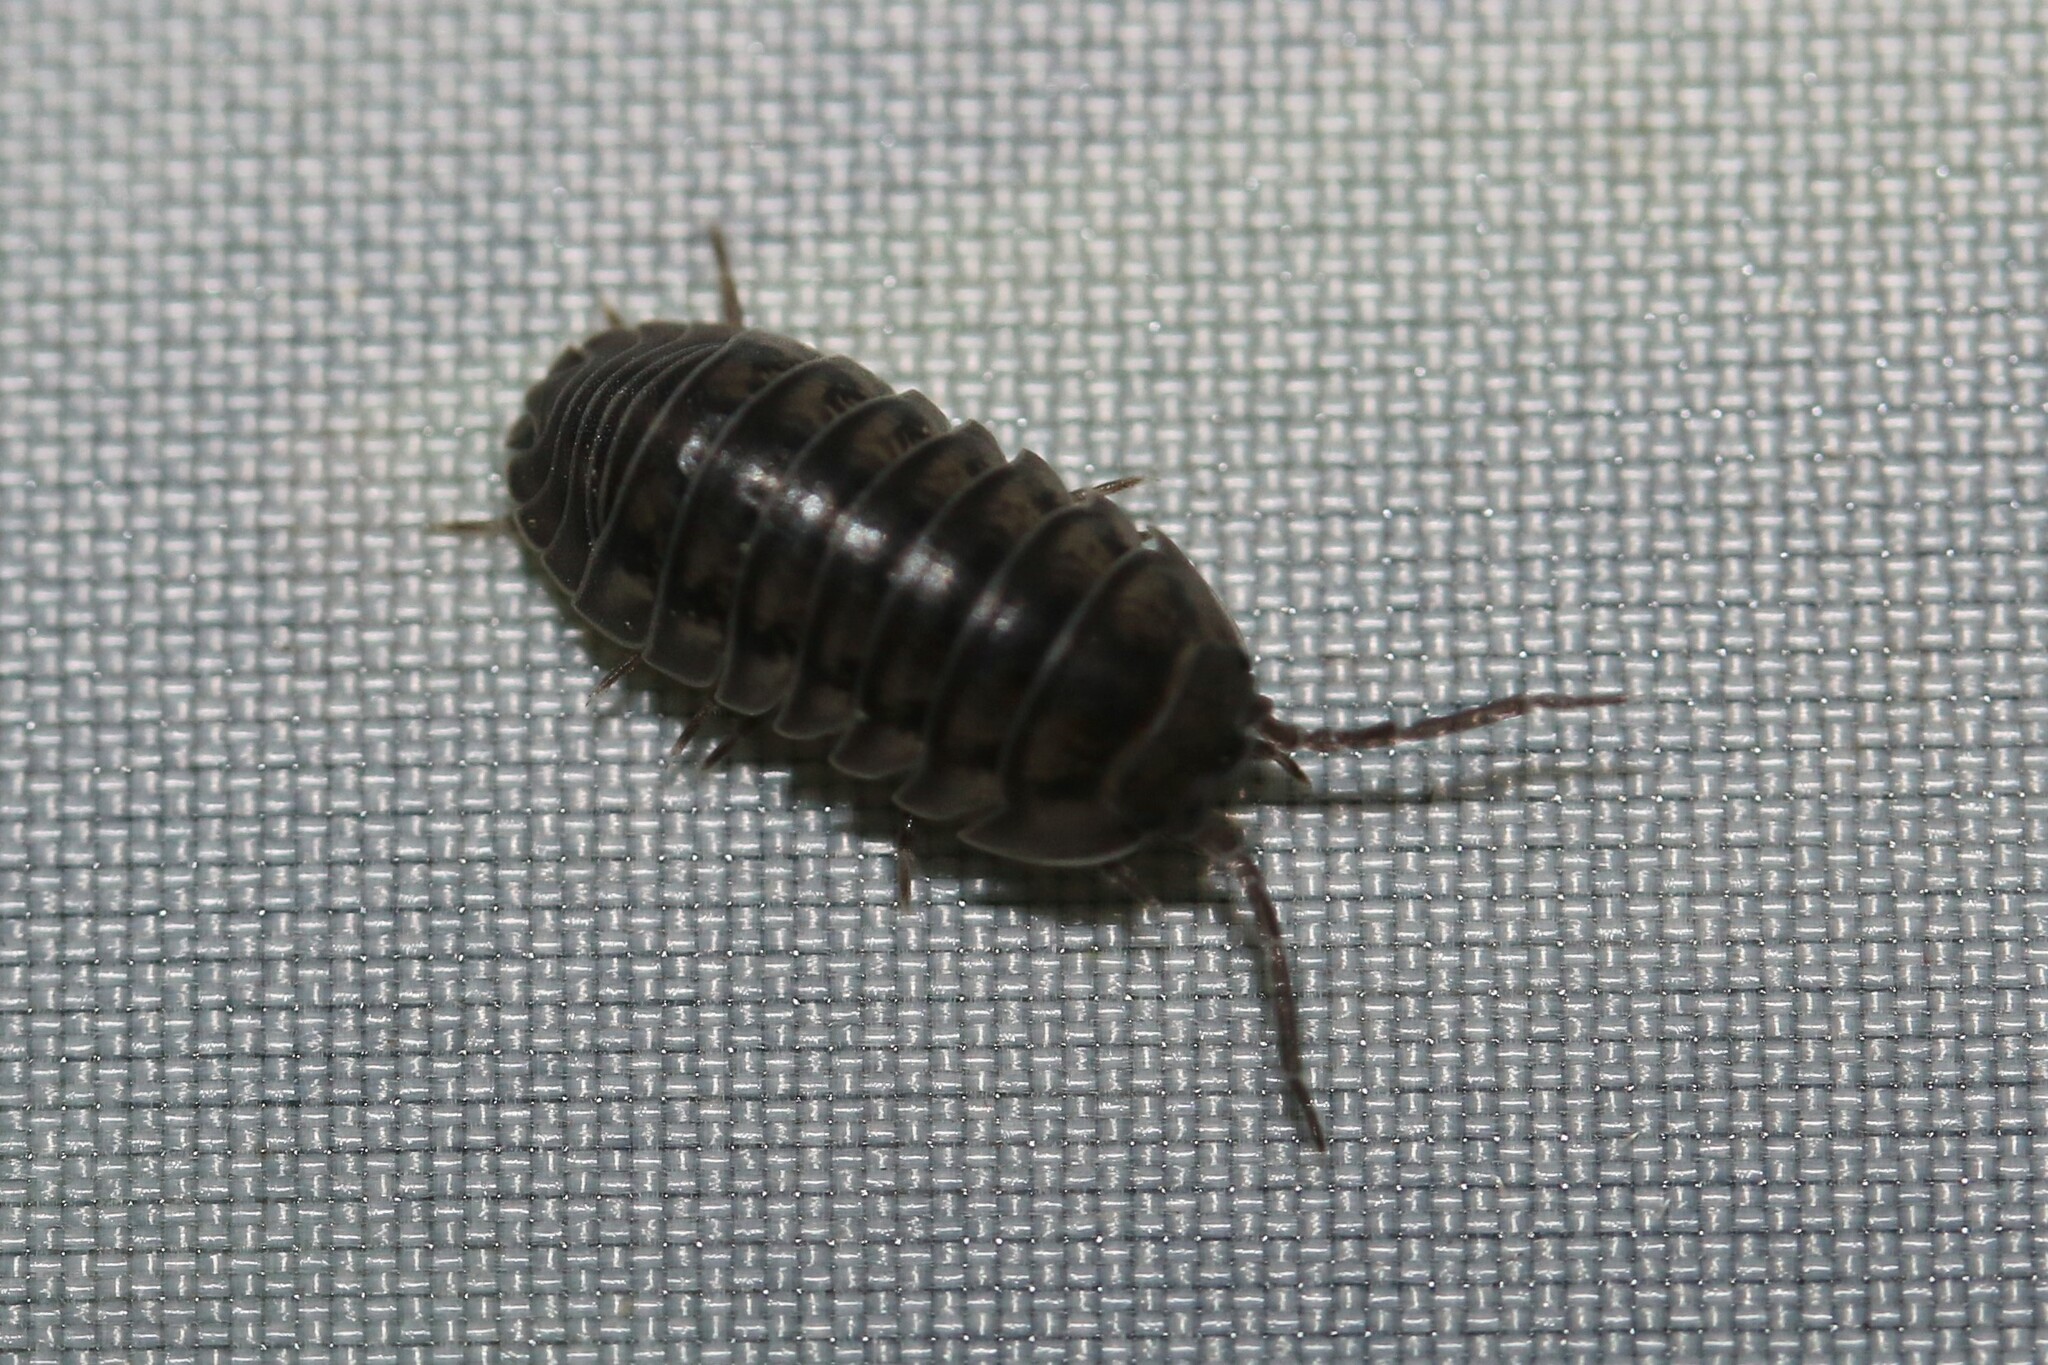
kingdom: Animalia
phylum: Arthropoda
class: Malacostraca
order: Isopoda
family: Armadillidiidae
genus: Armadillidium
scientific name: Armadillidium nasatum
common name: Isopod
